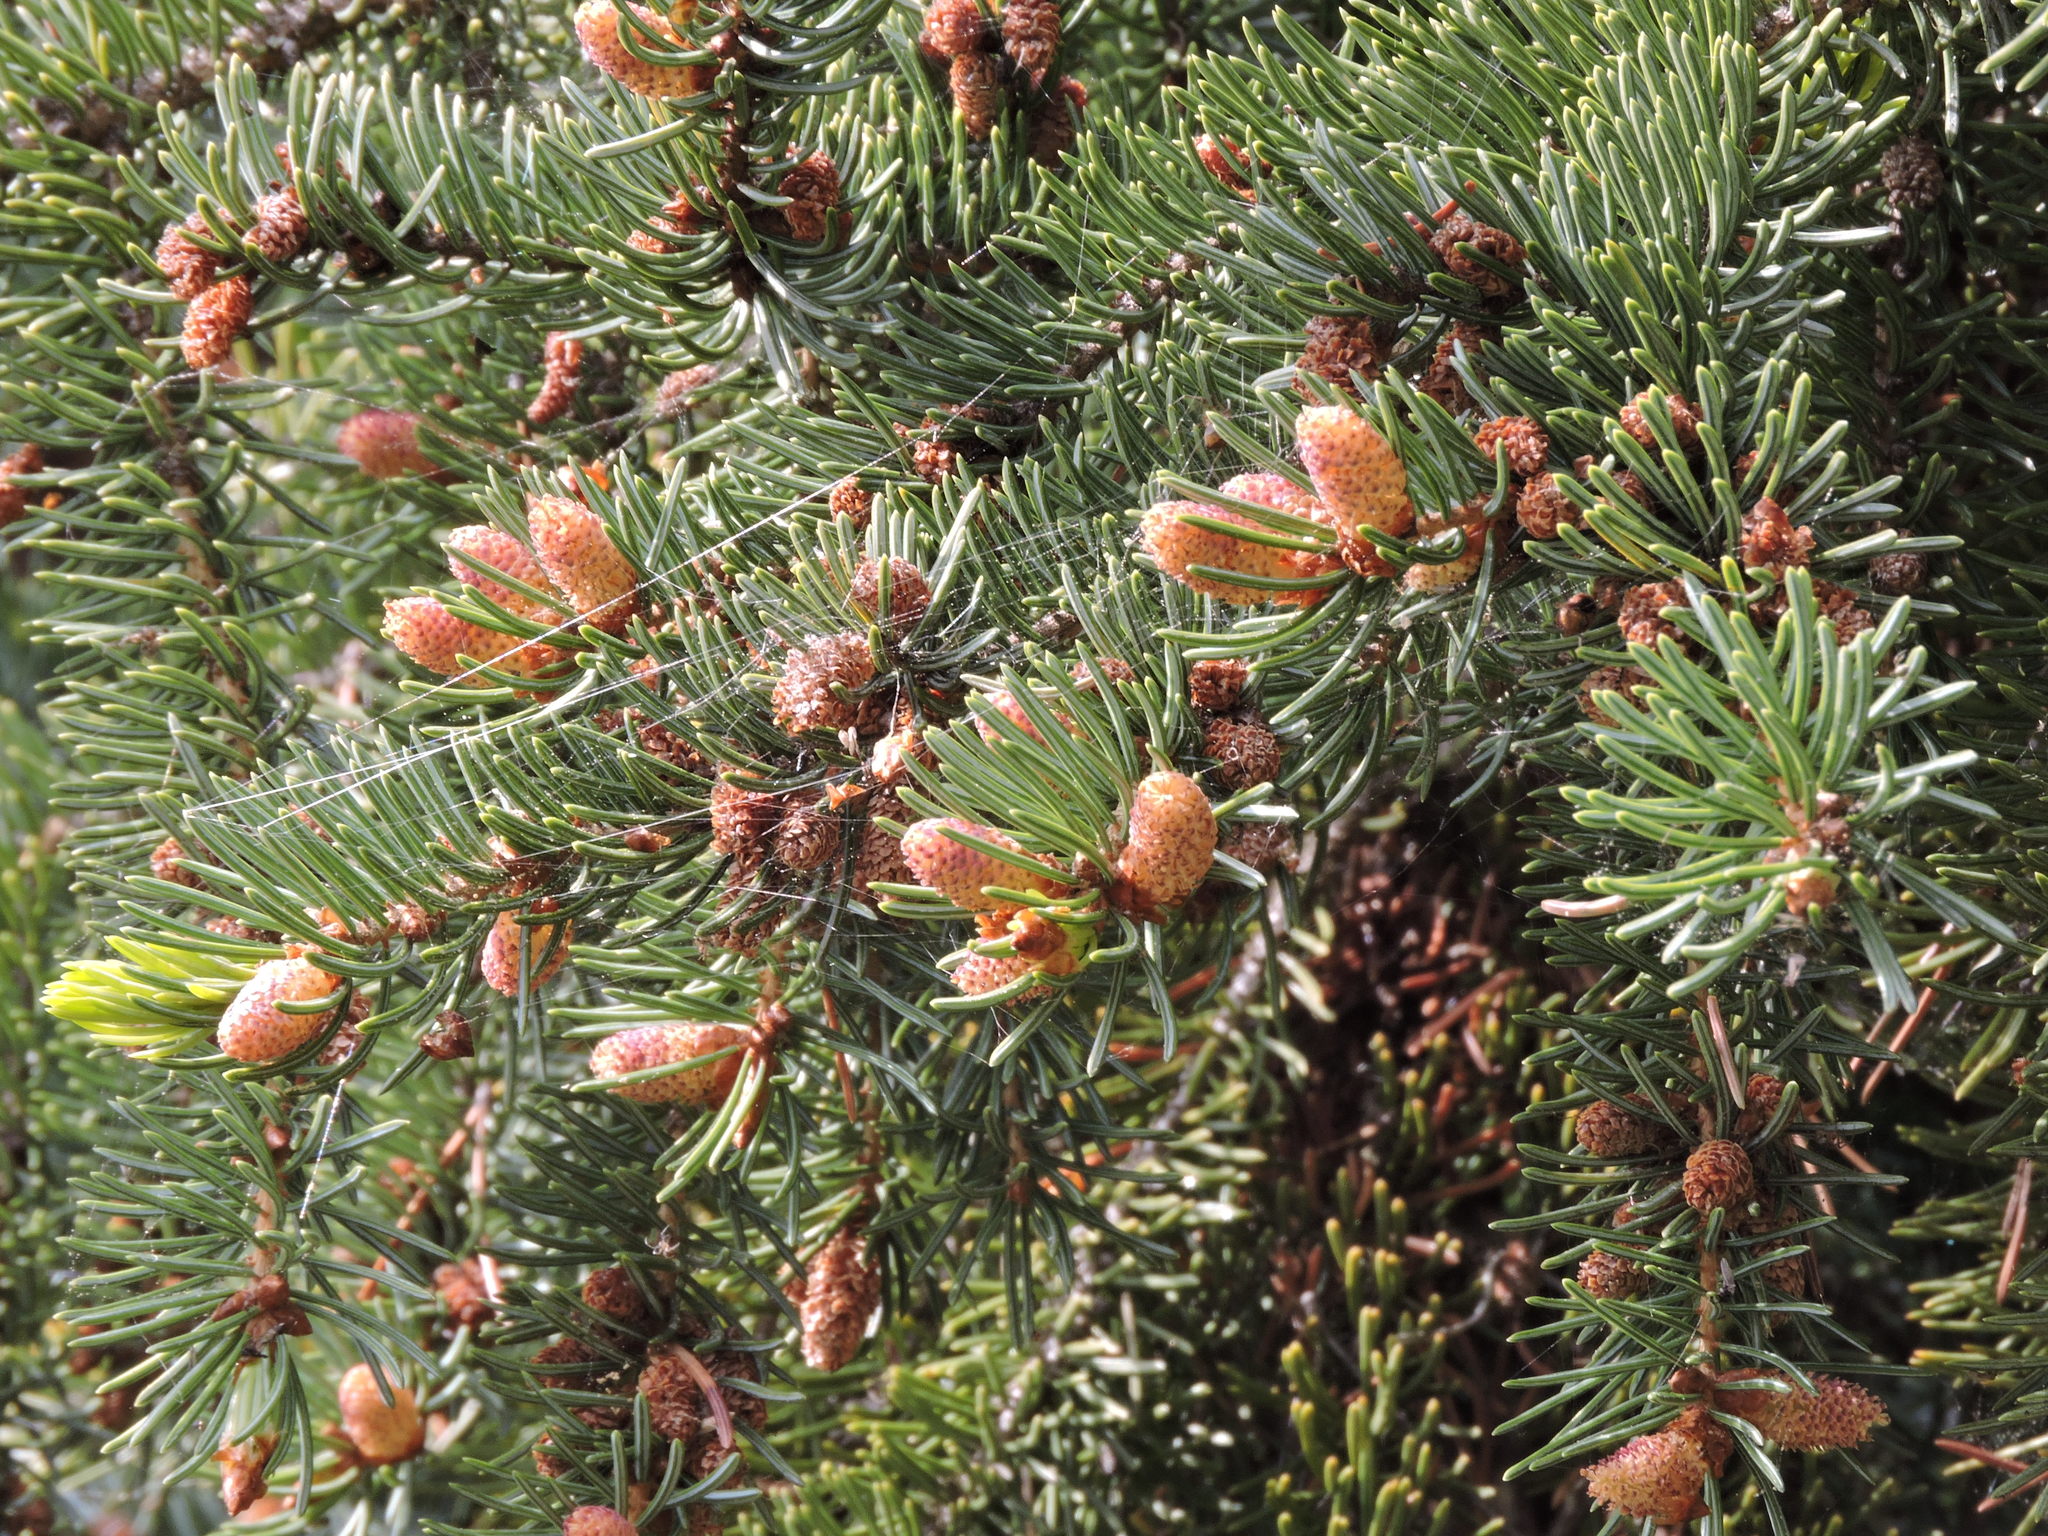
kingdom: Plantae
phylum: Tracheophyta
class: Pinopsida
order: Pinales
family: Pinaceae
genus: Picea
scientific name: Picea engelmannii
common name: Engelmann spruce
